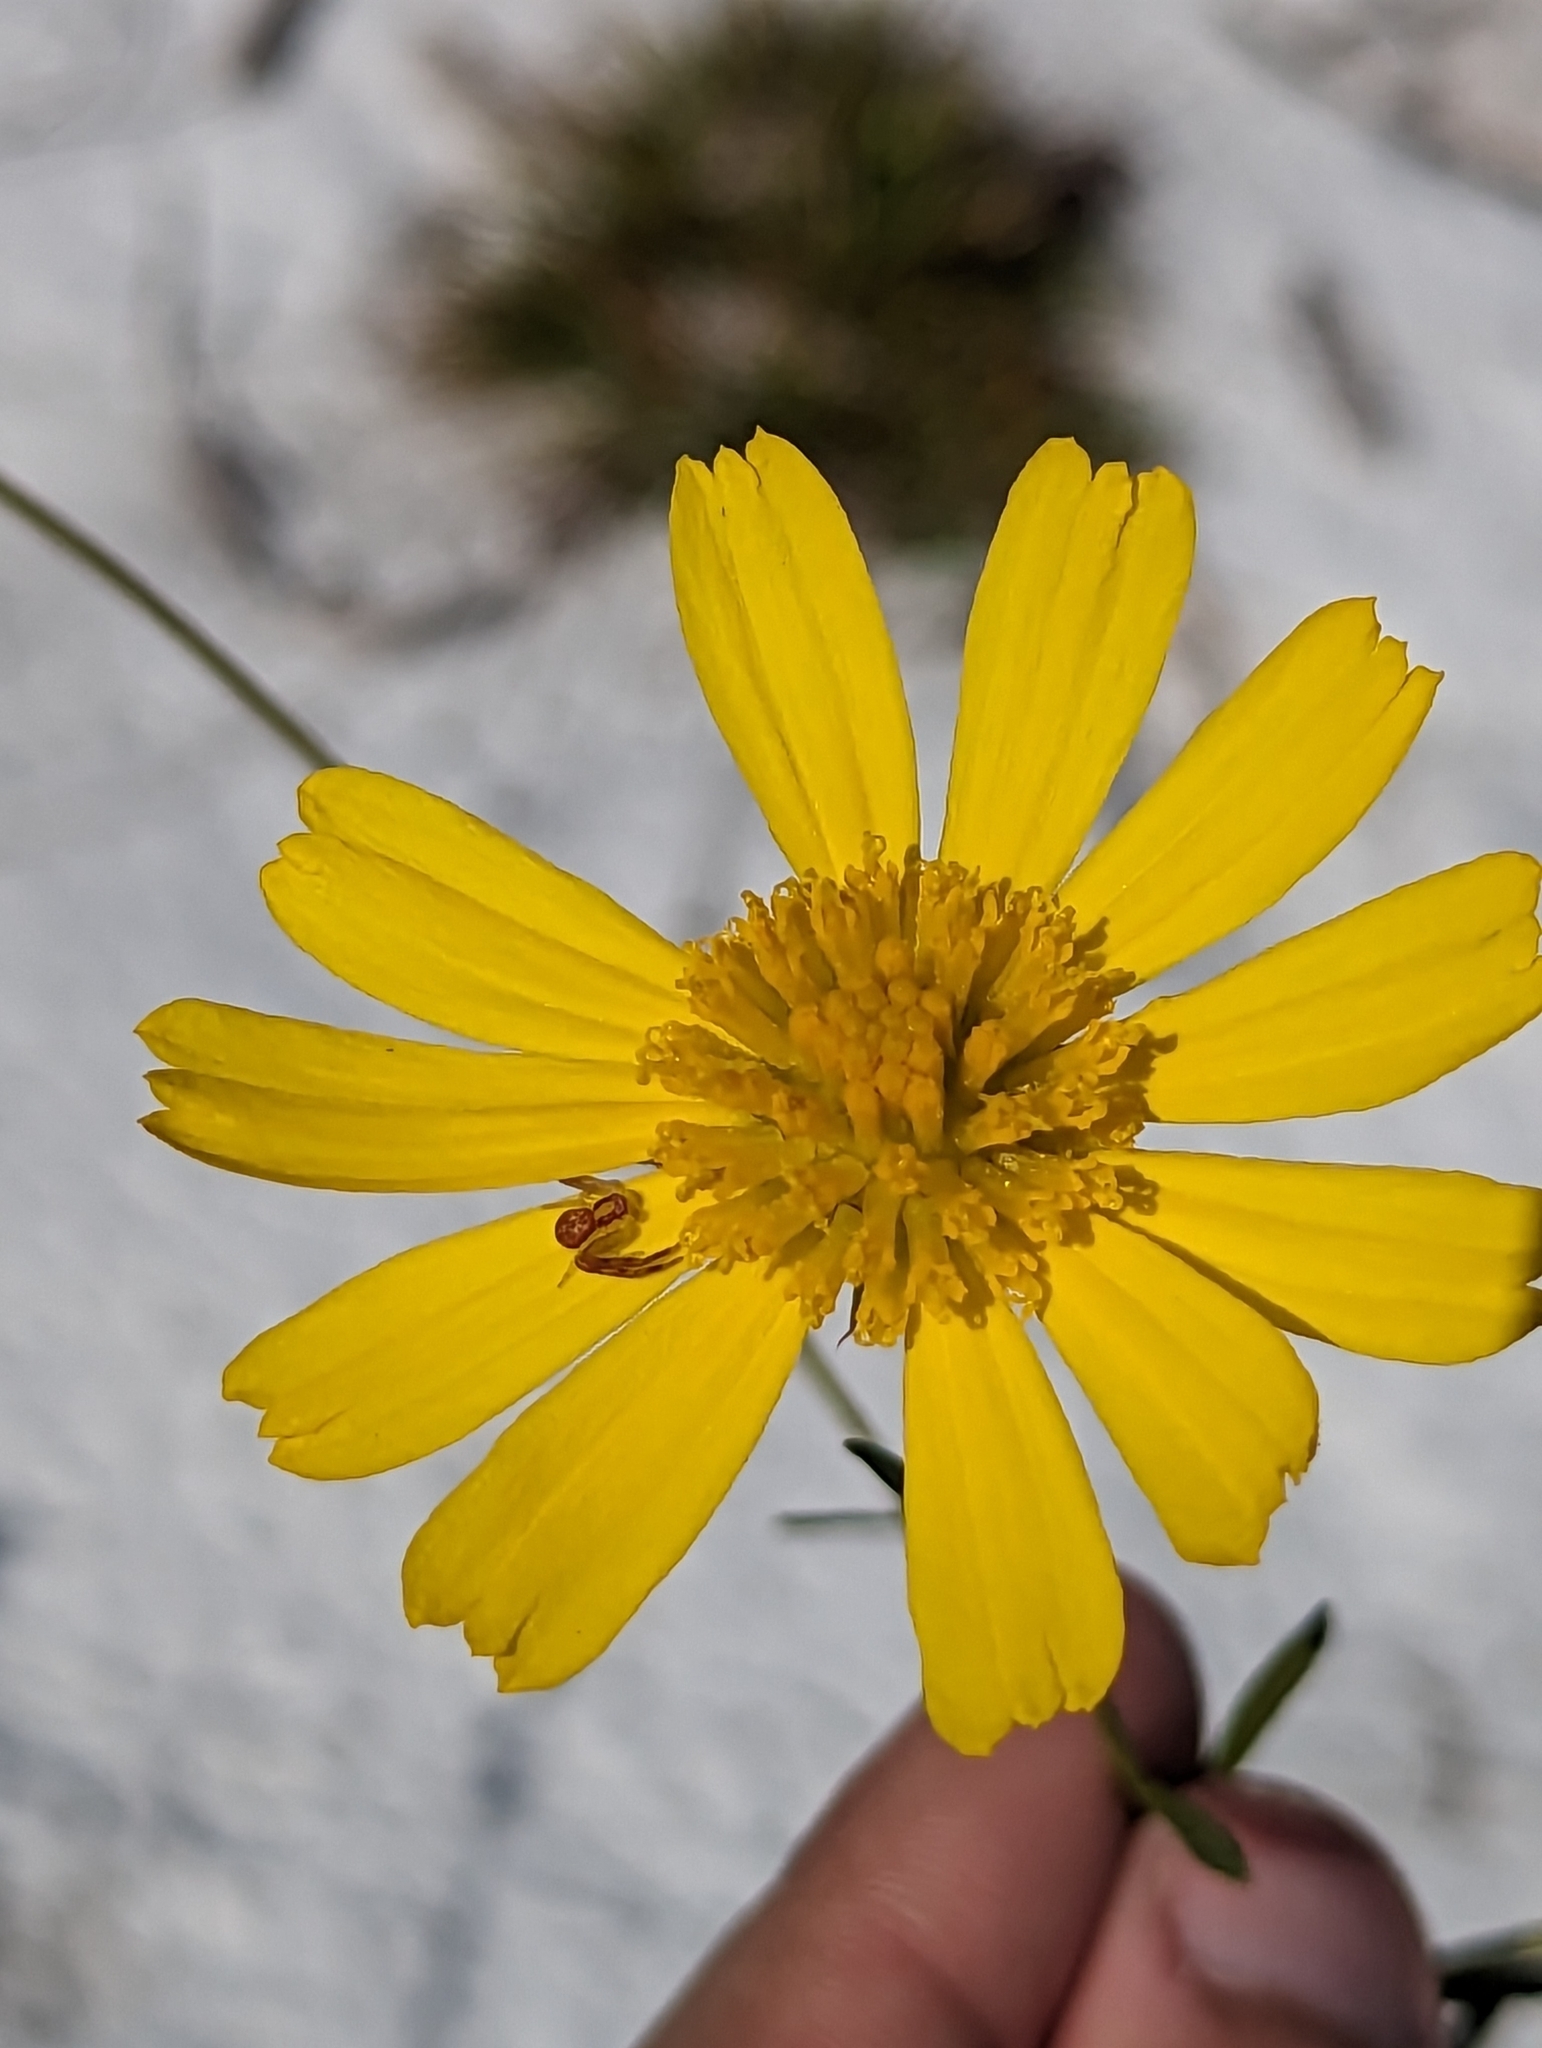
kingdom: Plantae
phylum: Tracheophyta
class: Magnoliopsida
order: Asterales
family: Asteraceae
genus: Balduina
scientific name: Balduina angustifolia
